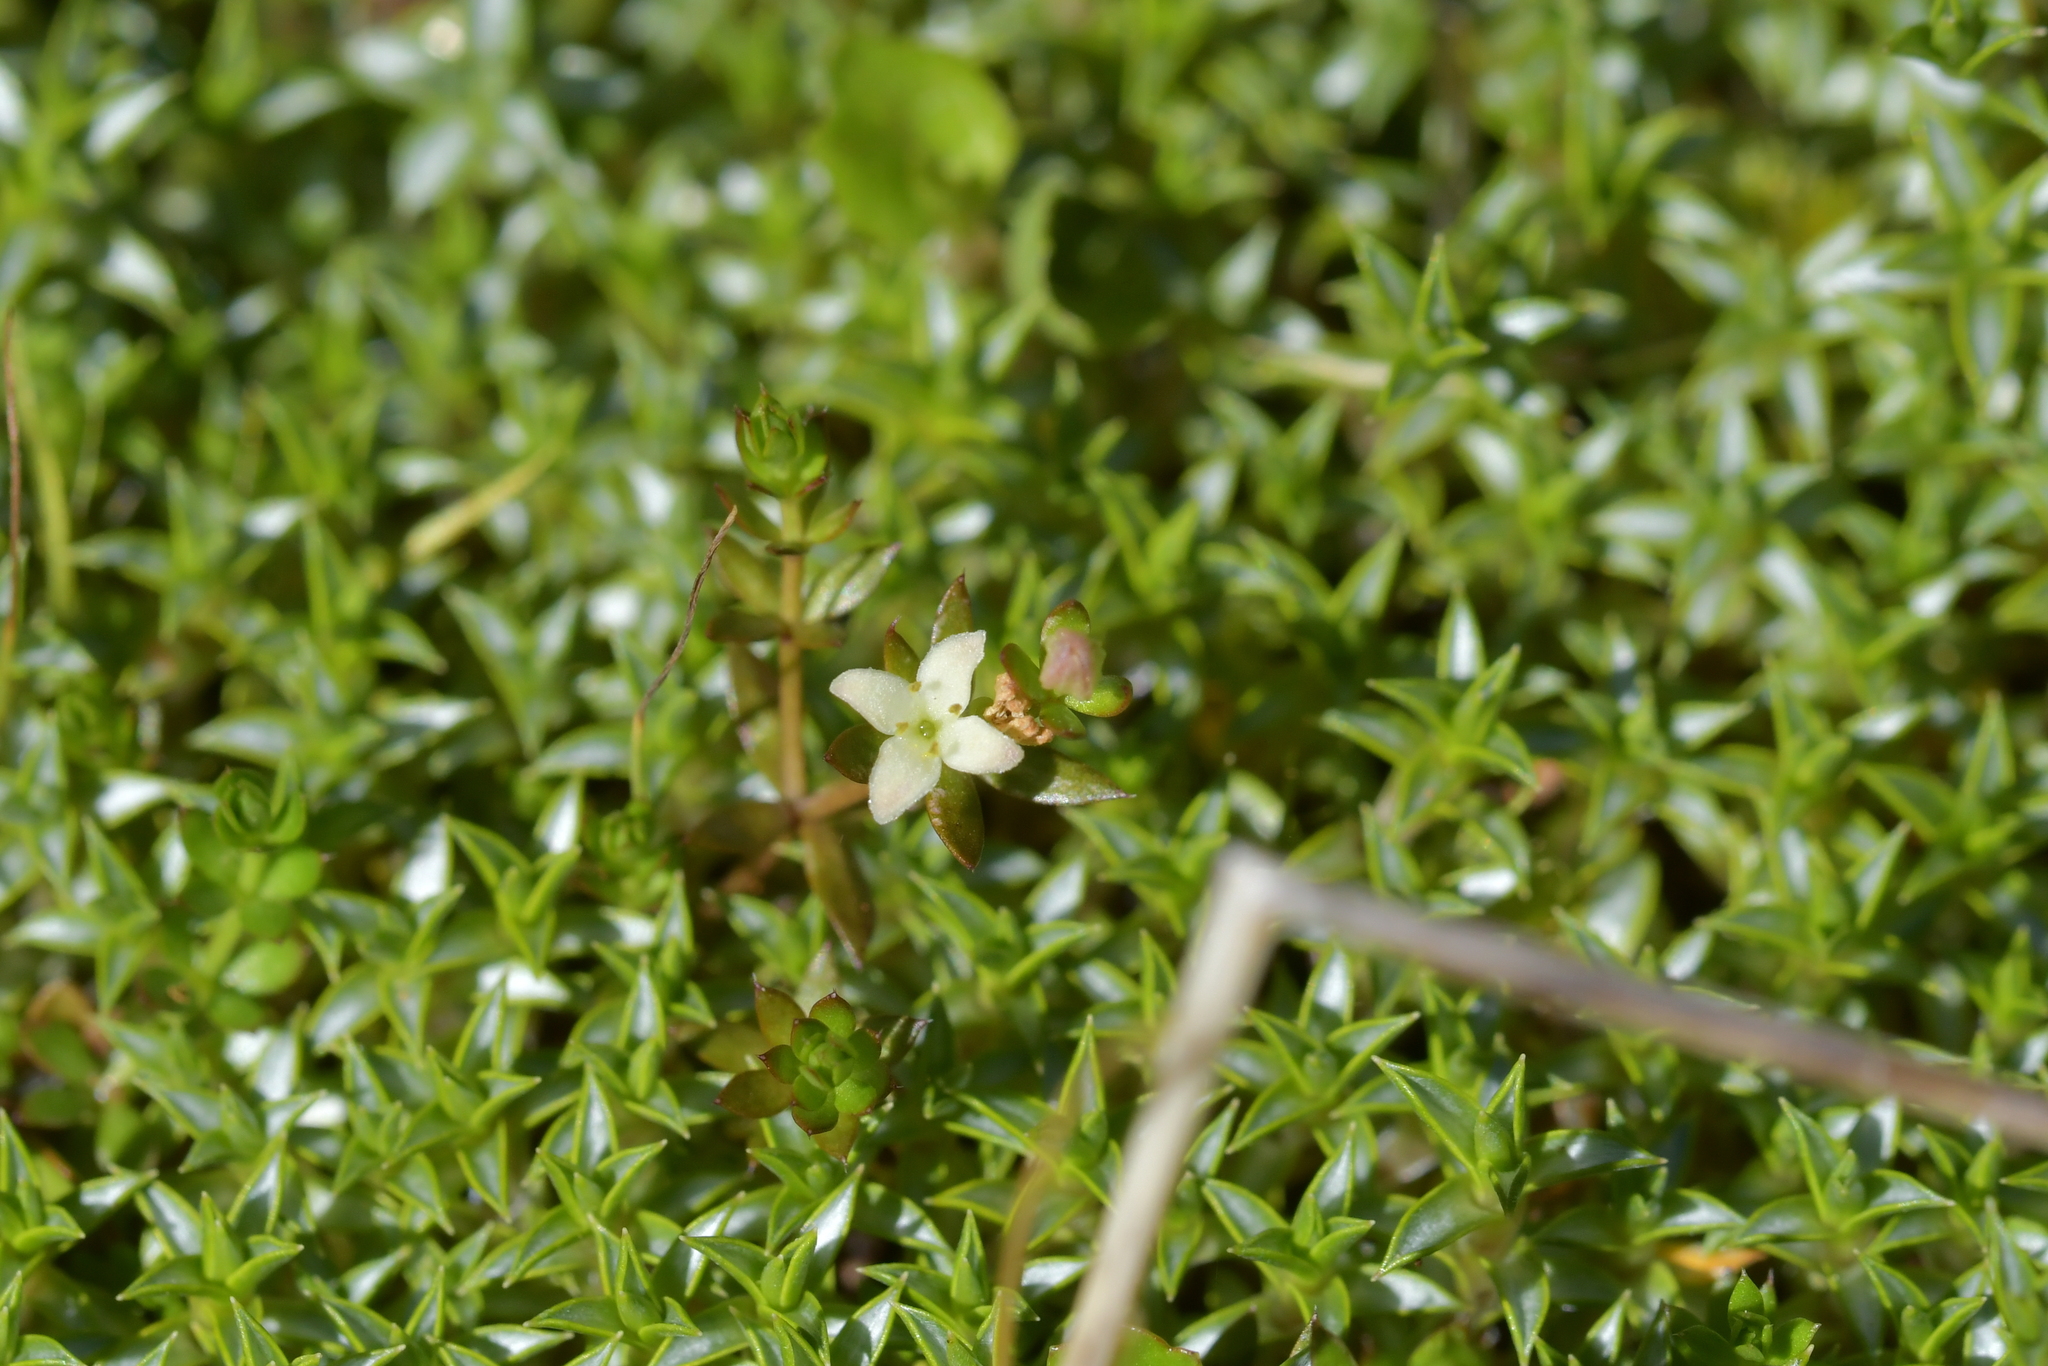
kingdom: Plantae
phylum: Tracheophyta
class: Magnoliopsida
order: Gentianales
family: Rubiaceae
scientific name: Rubiaceae
